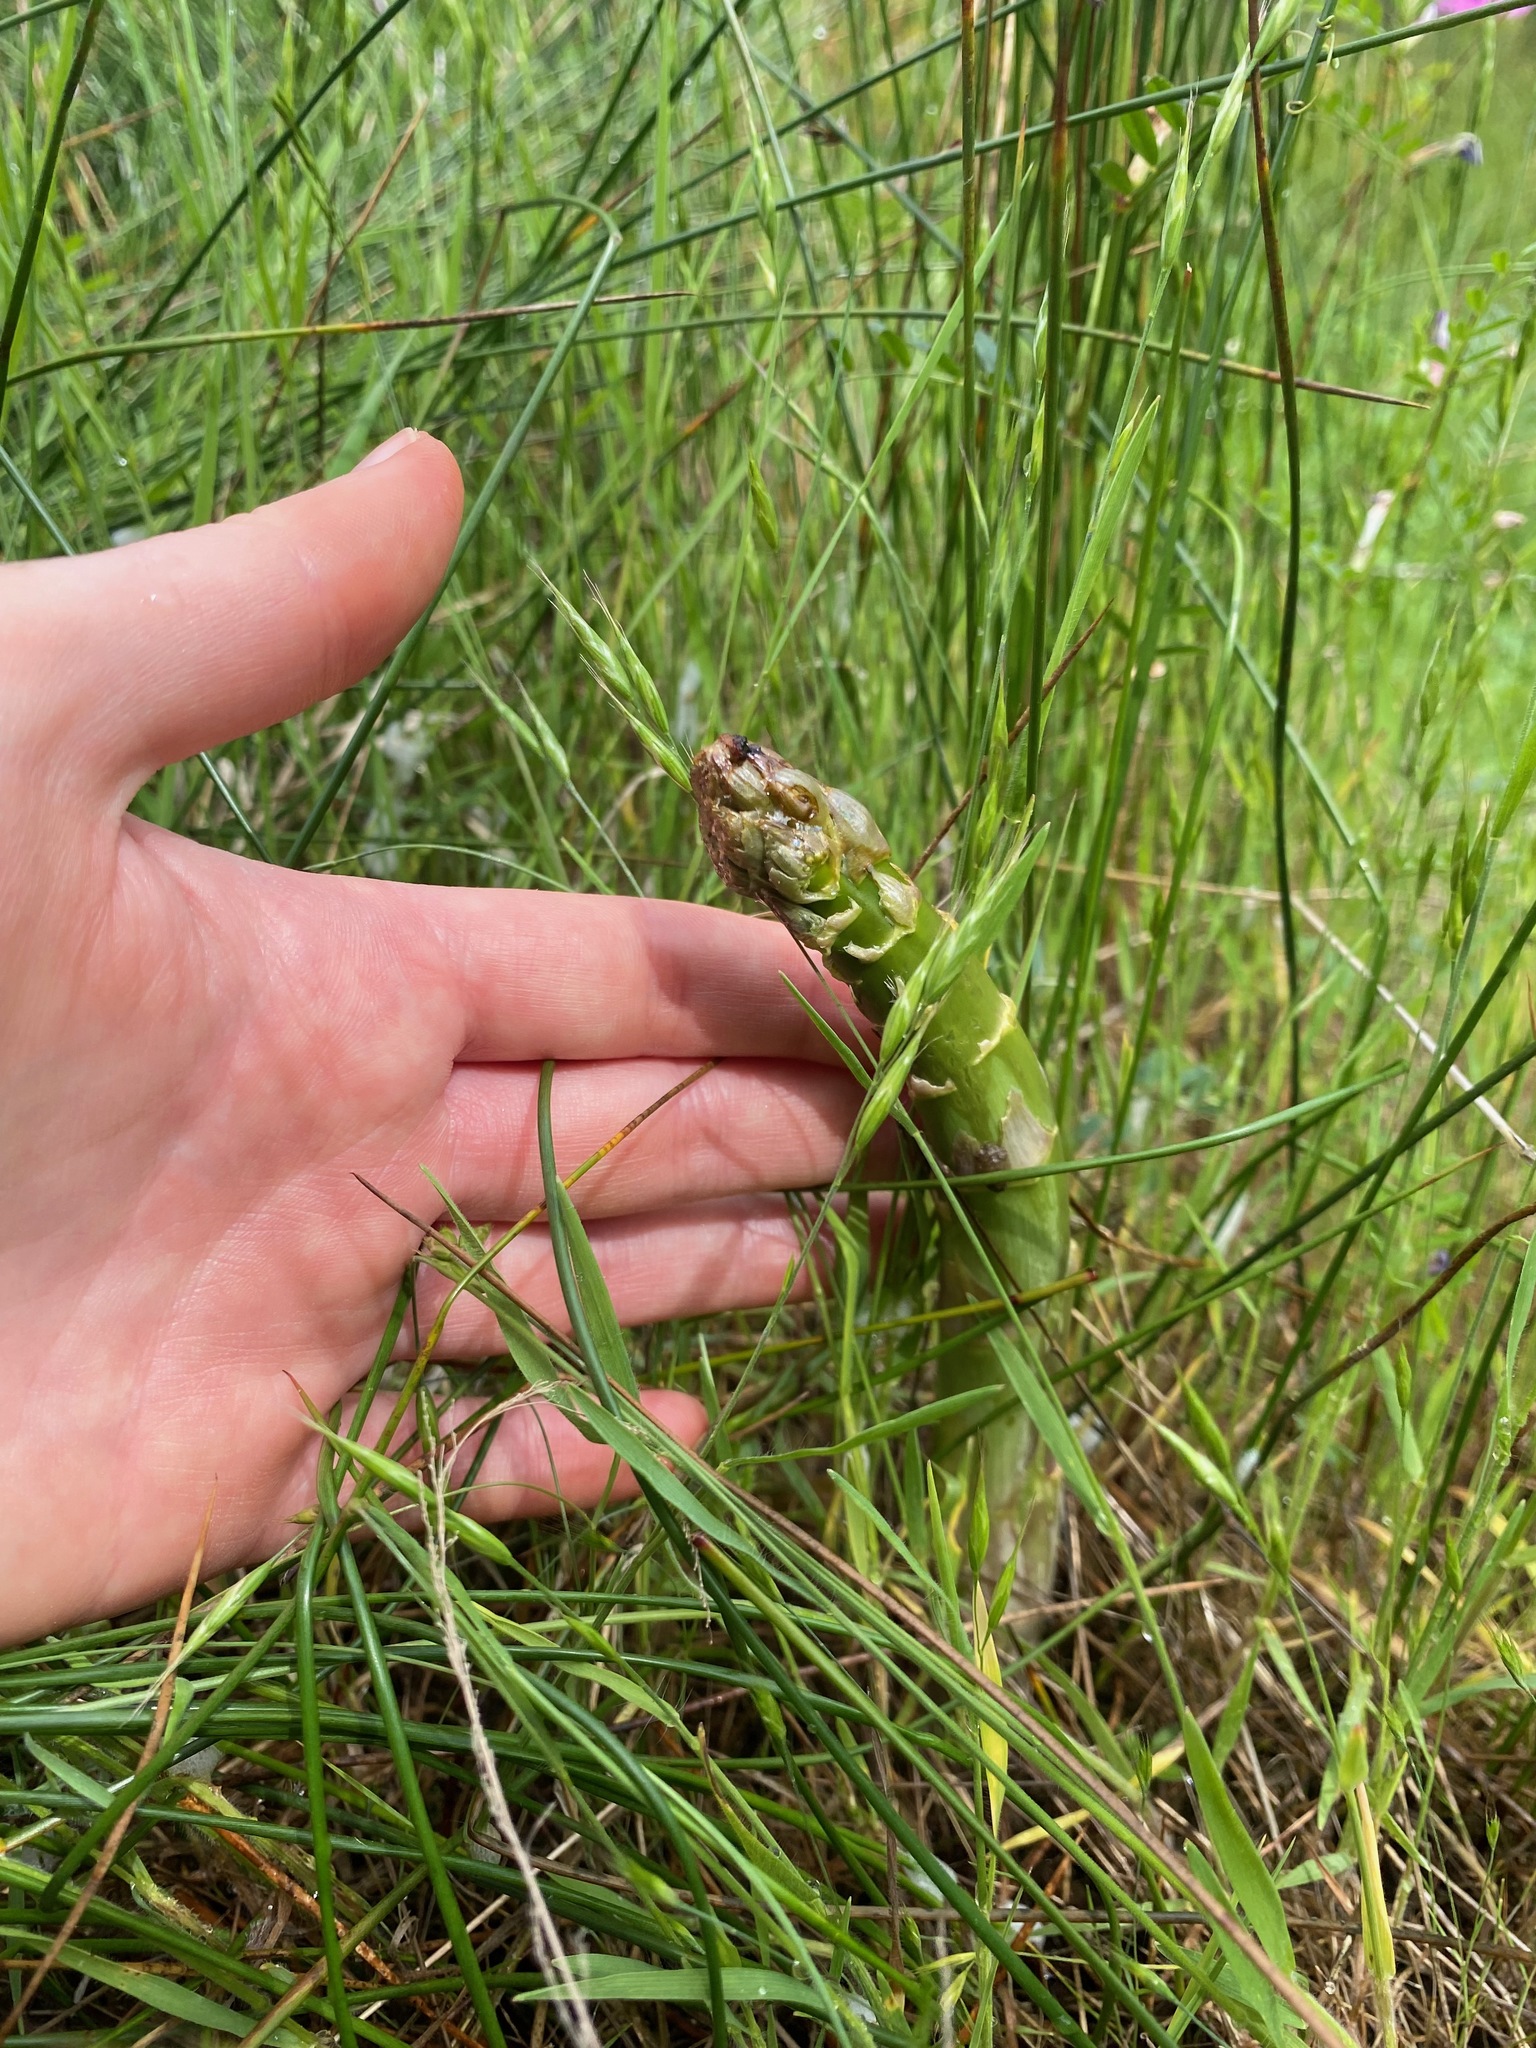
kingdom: Plantae
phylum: Tracheophyta
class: Liliopsida
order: Asparagales
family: Asparagaceae
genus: Asparagus
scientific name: Asparagus officinalis
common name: Garden asparagus
